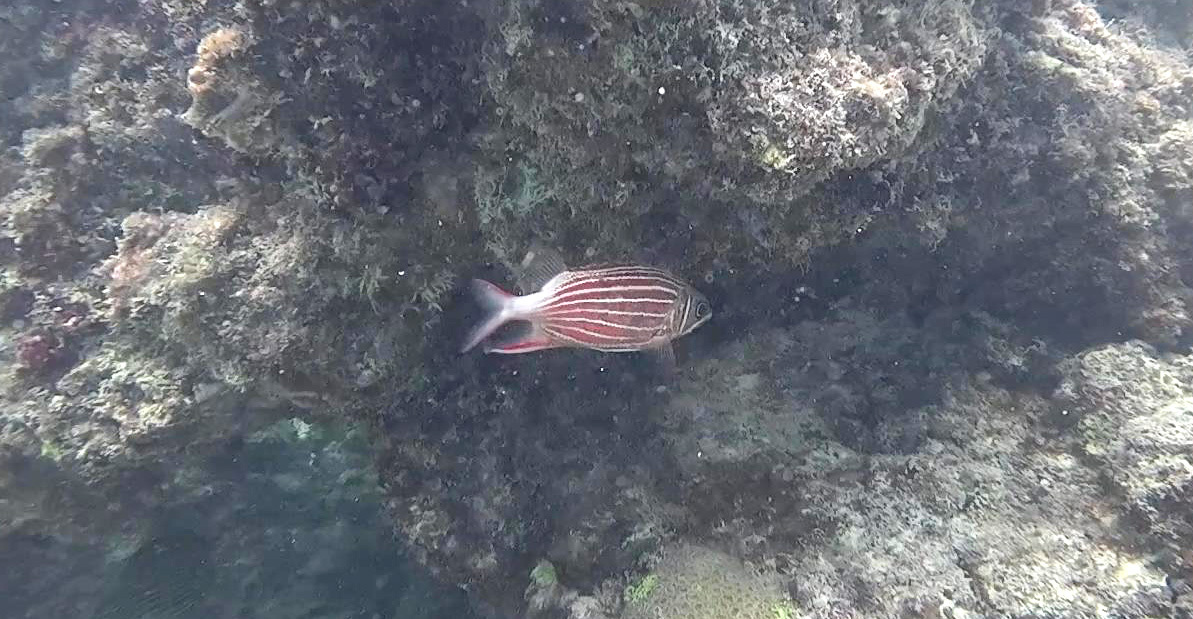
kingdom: Animalia
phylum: Chordata
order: Beryciformes
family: Holocentridae
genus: Sargocentron
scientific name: Sargocentron rubrum
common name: Redcoat
